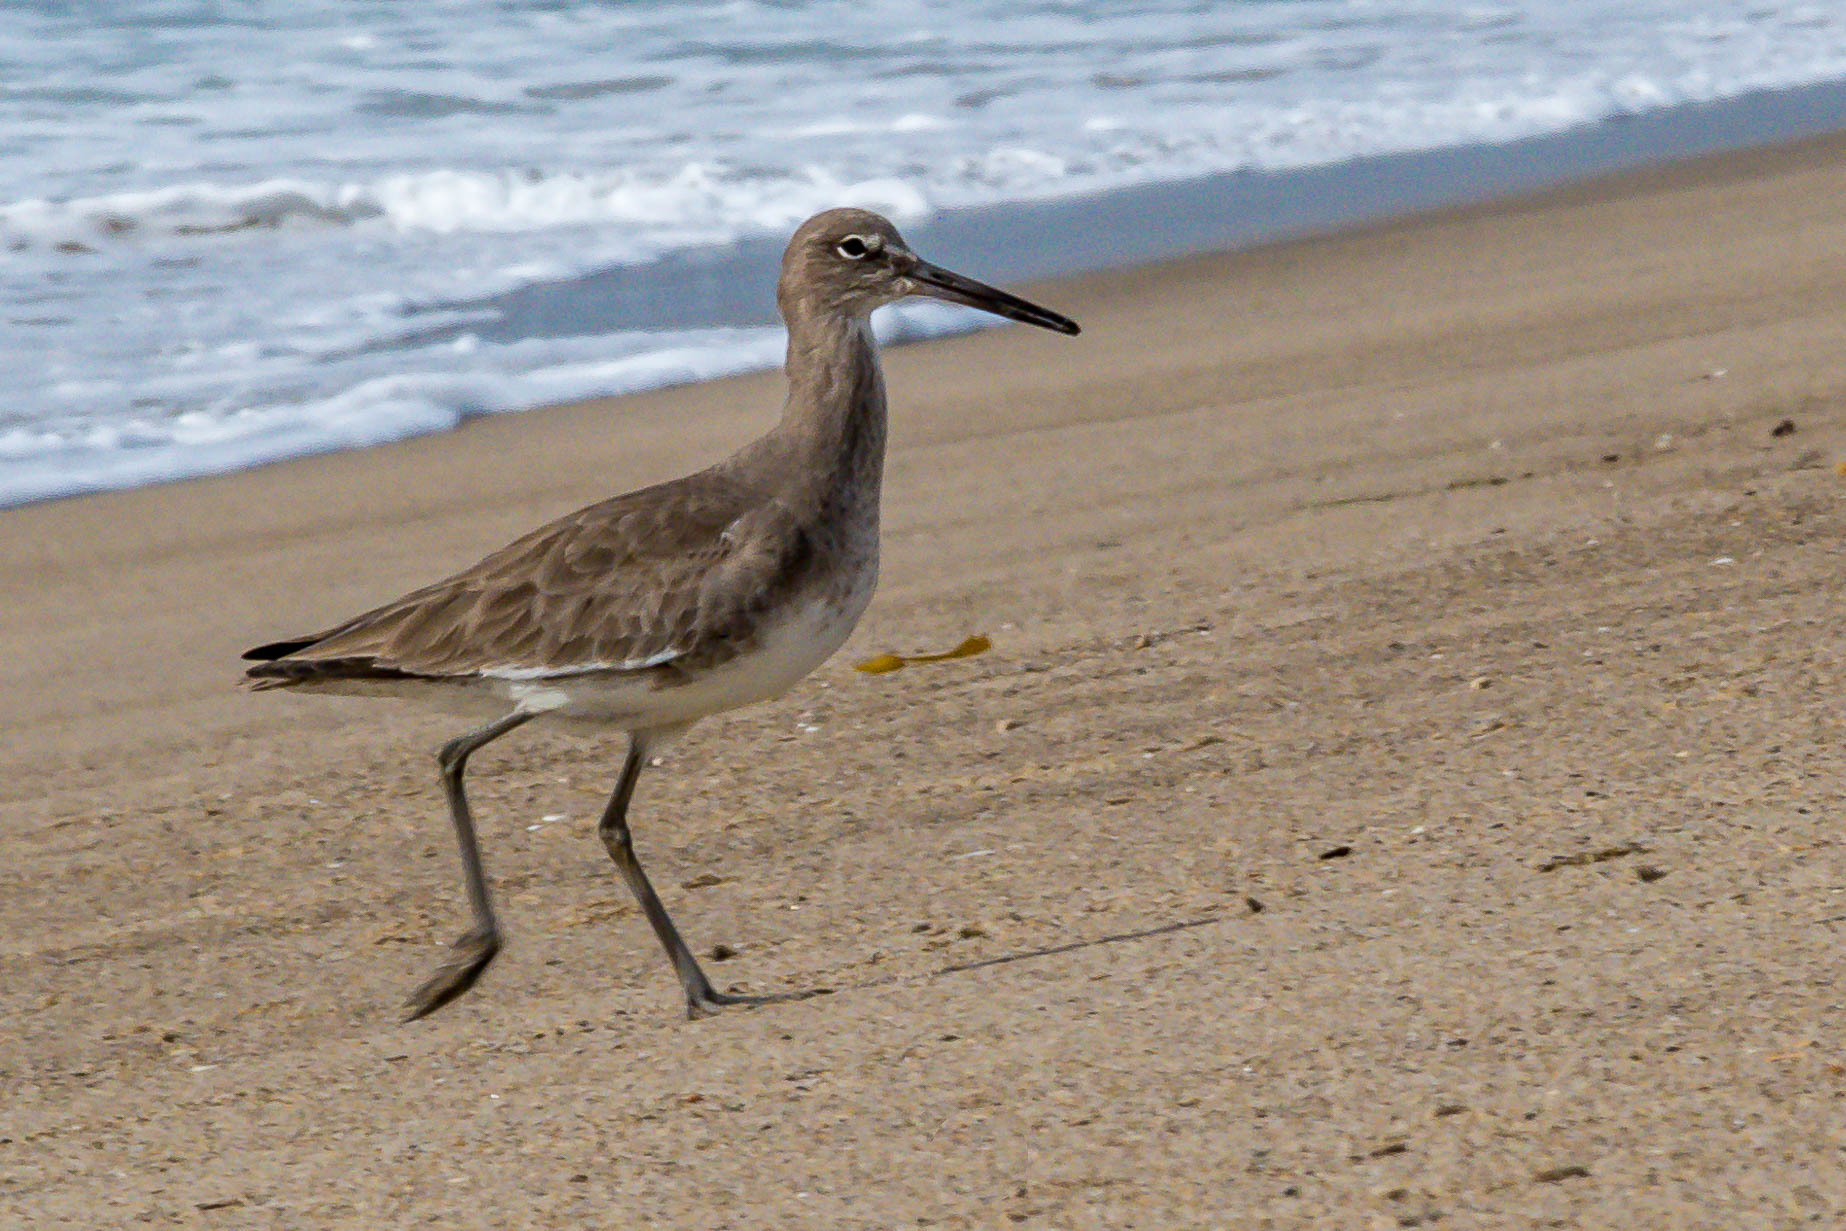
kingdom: Animalia
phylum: Chordata
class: Aves
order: Charadriiformes
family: Scolopacidae
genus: Tringa
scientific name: Tringa semipalmata
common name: Willet
